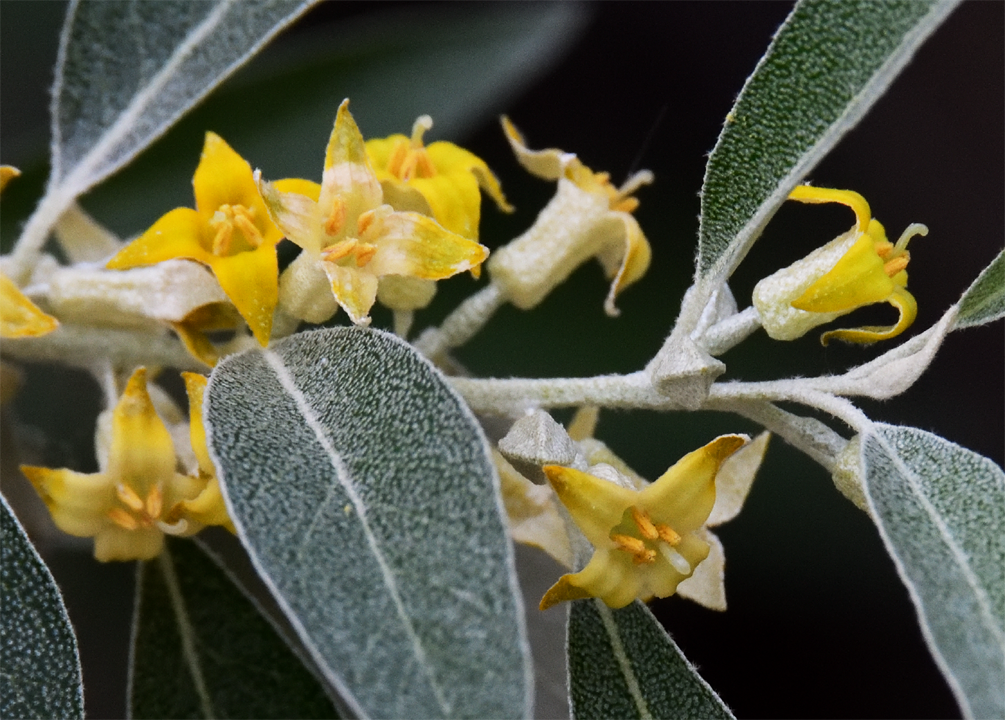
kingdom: Plantae
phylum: Tracheophyta
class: Magnoliopsida
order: Rosales
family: Elaeagnaceae
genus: Elaeagnus
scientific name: Elaeagnus angustifolia
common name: Russian olive
